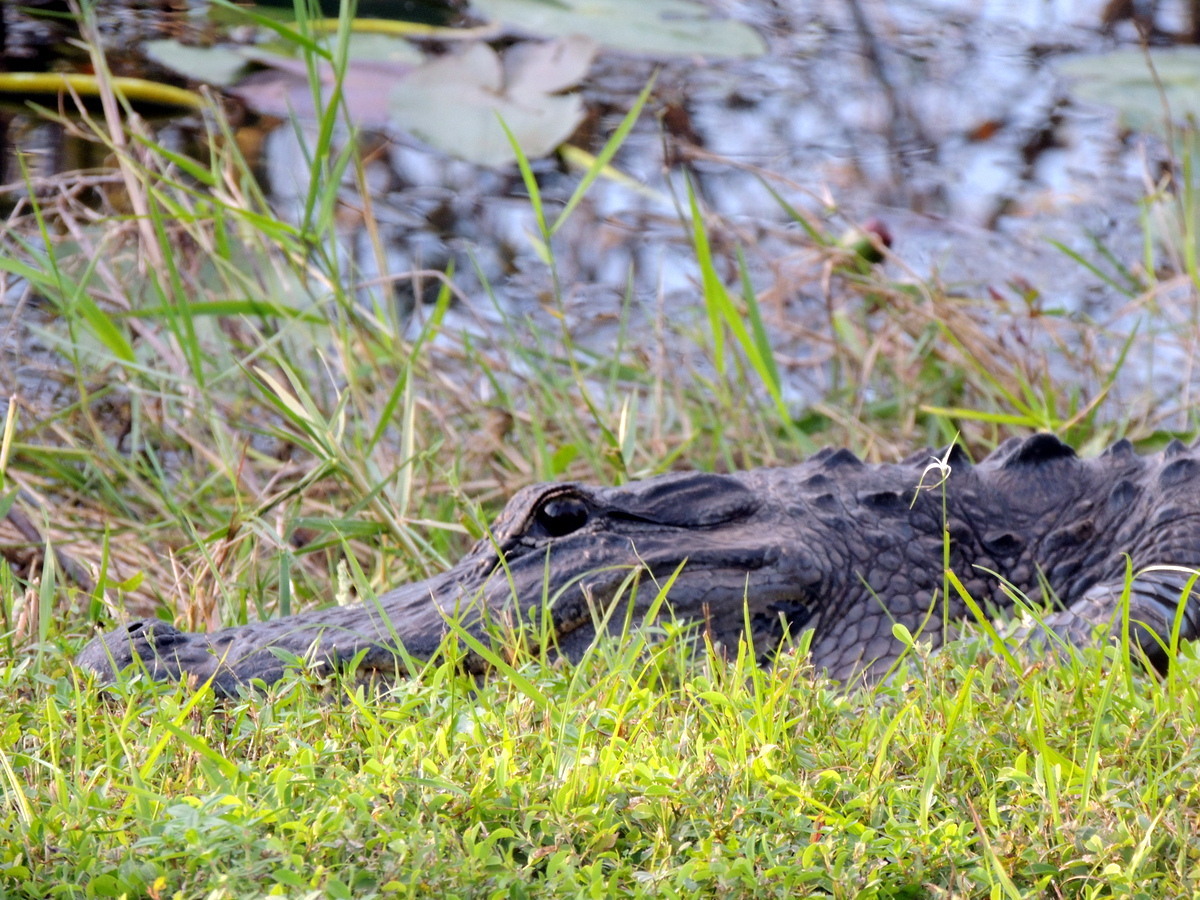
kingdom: Animalia
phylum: Chordata
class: Crocodylia
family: Alligatoridae
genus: Alligator
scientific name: Alligator mississippiensis
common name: American alligator
